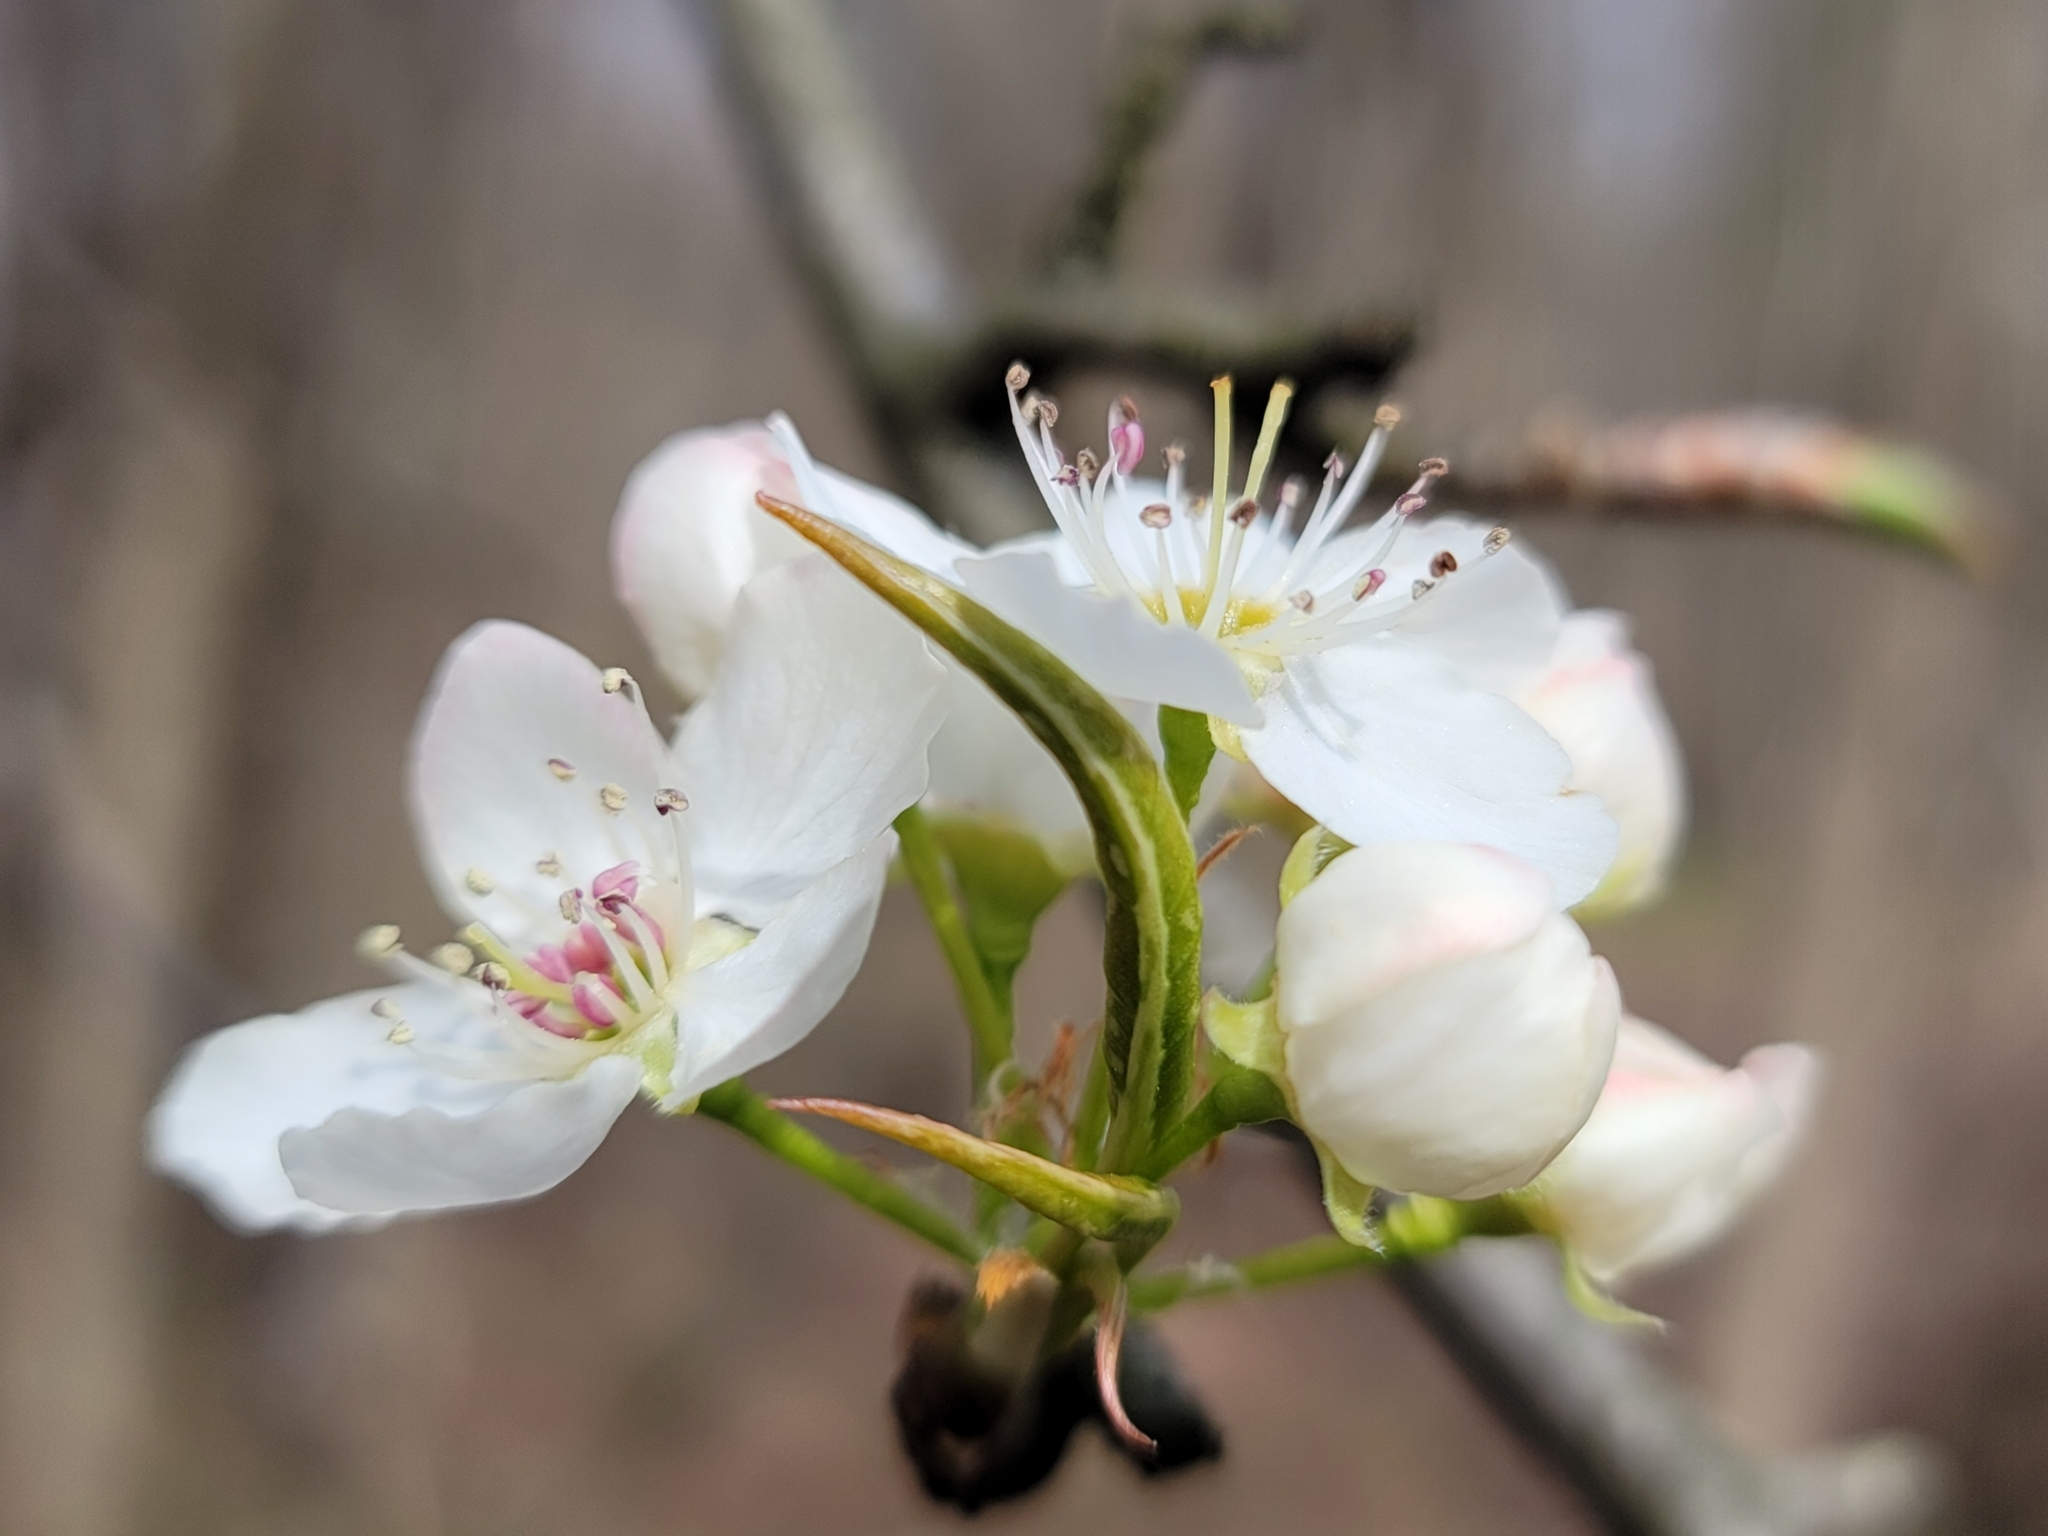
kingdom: Plantae
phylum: Tracheophyta
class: Magnoliopsida
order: Rosales
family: Rosaceae
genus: Pyrus
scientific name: Pyrus calleryana
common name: Callery pear
